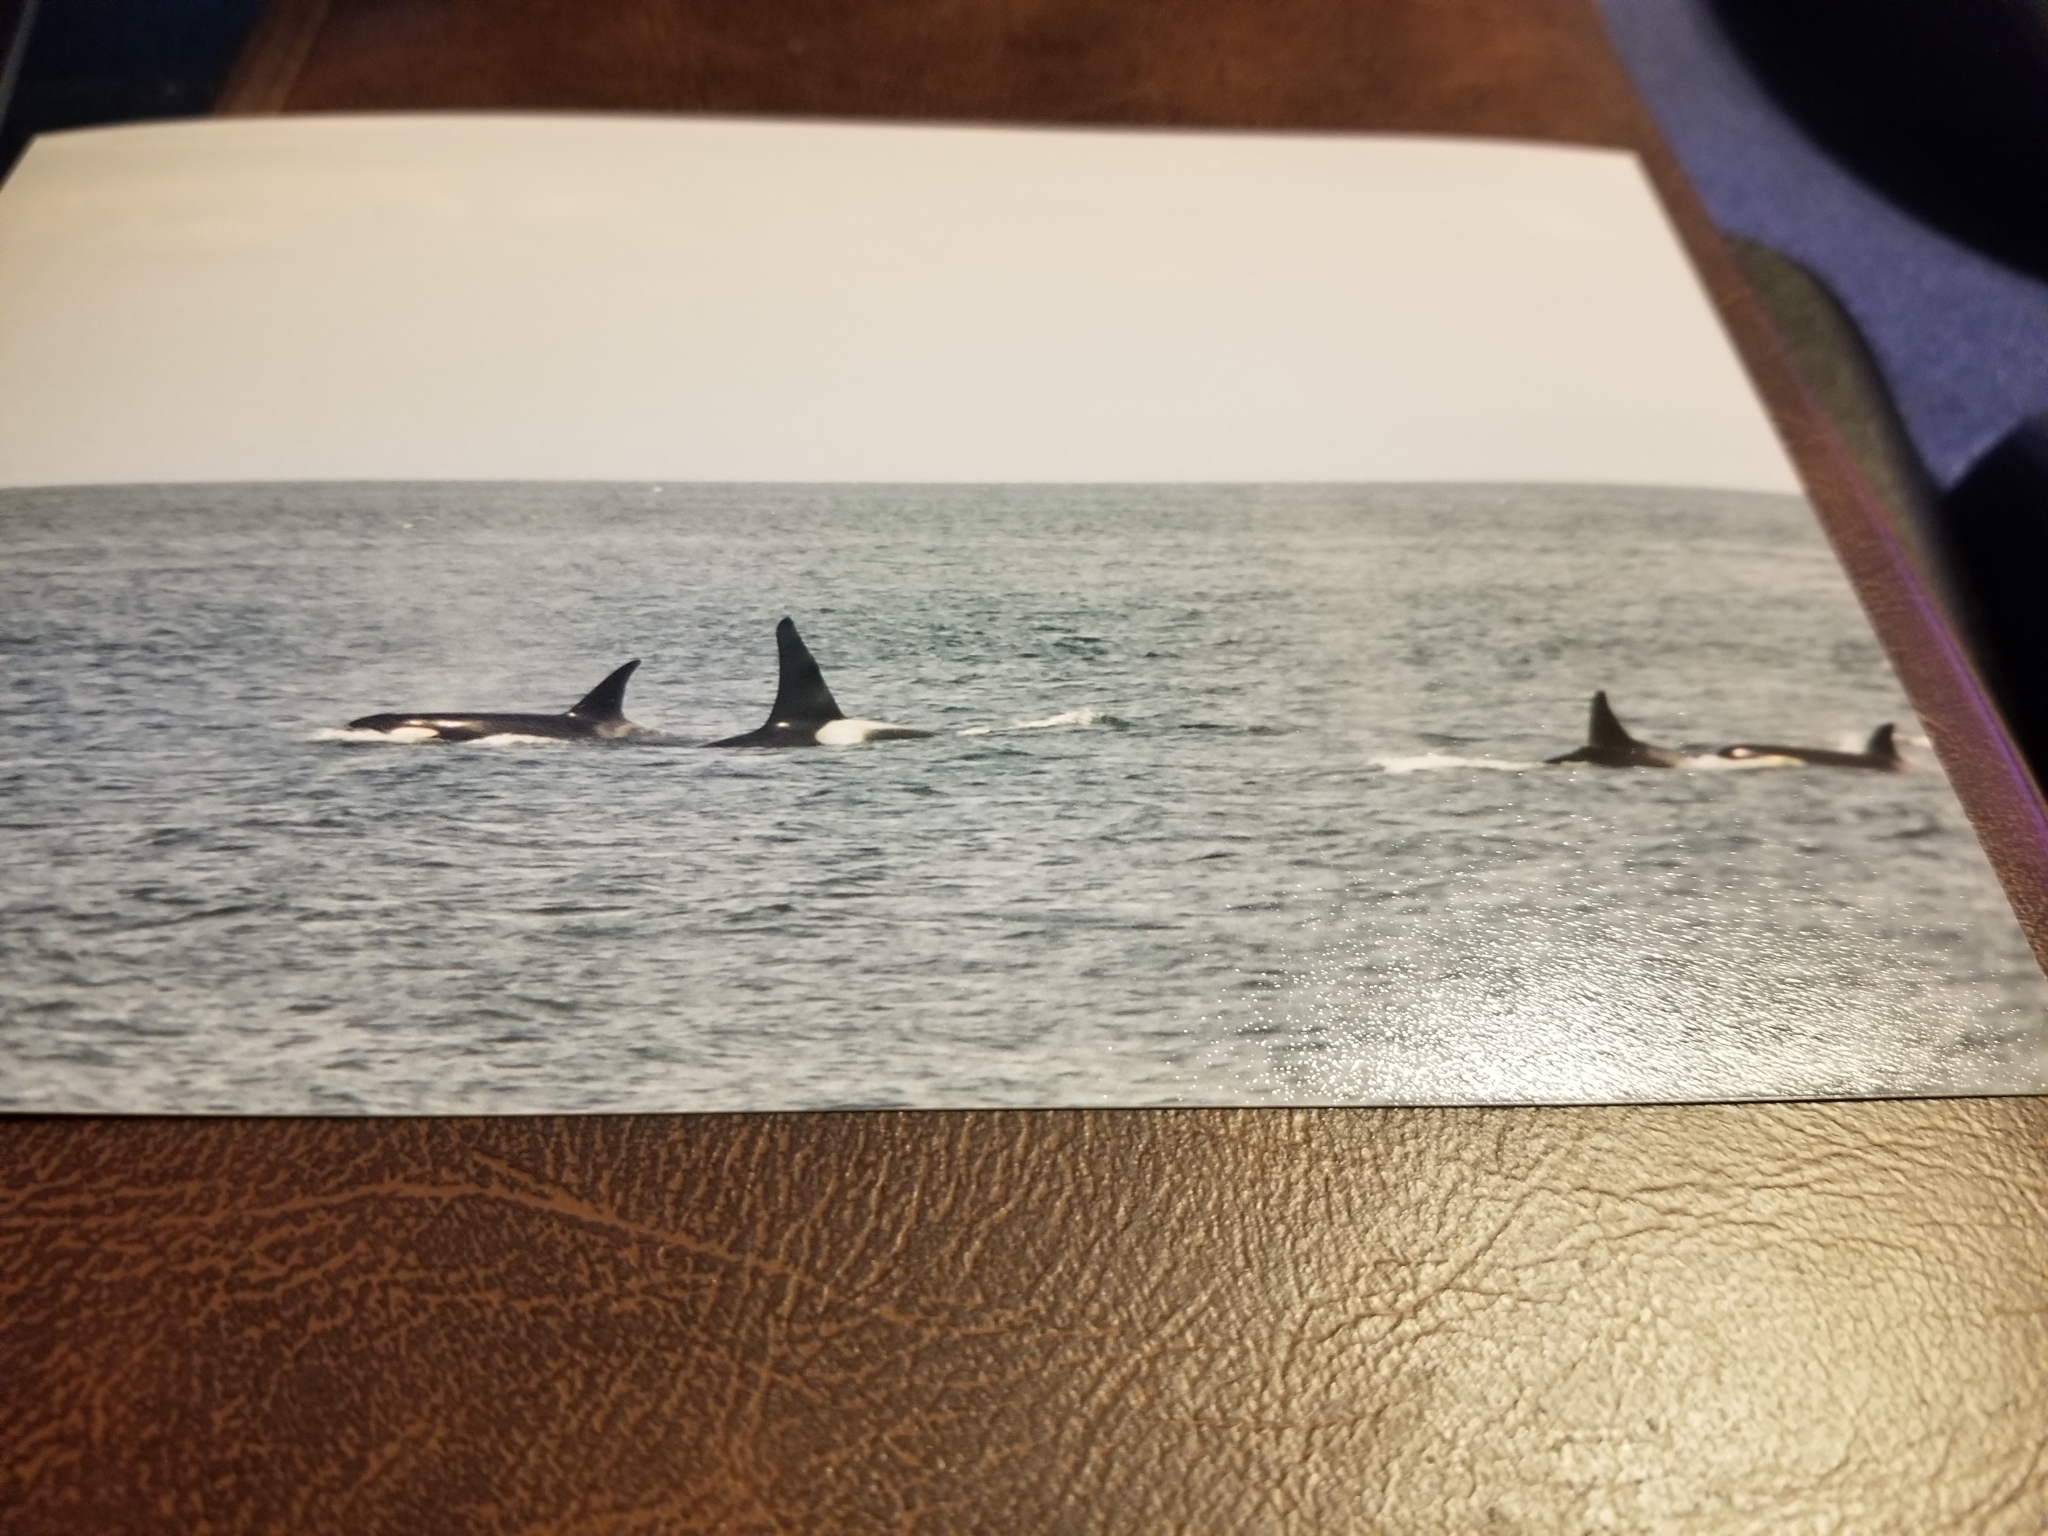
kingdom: Animalia
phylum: Chordata
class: Mammalia
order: Cetacea
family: Delphinidae
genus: Orcinus
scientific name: Orcinus orca
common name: Killer whale
